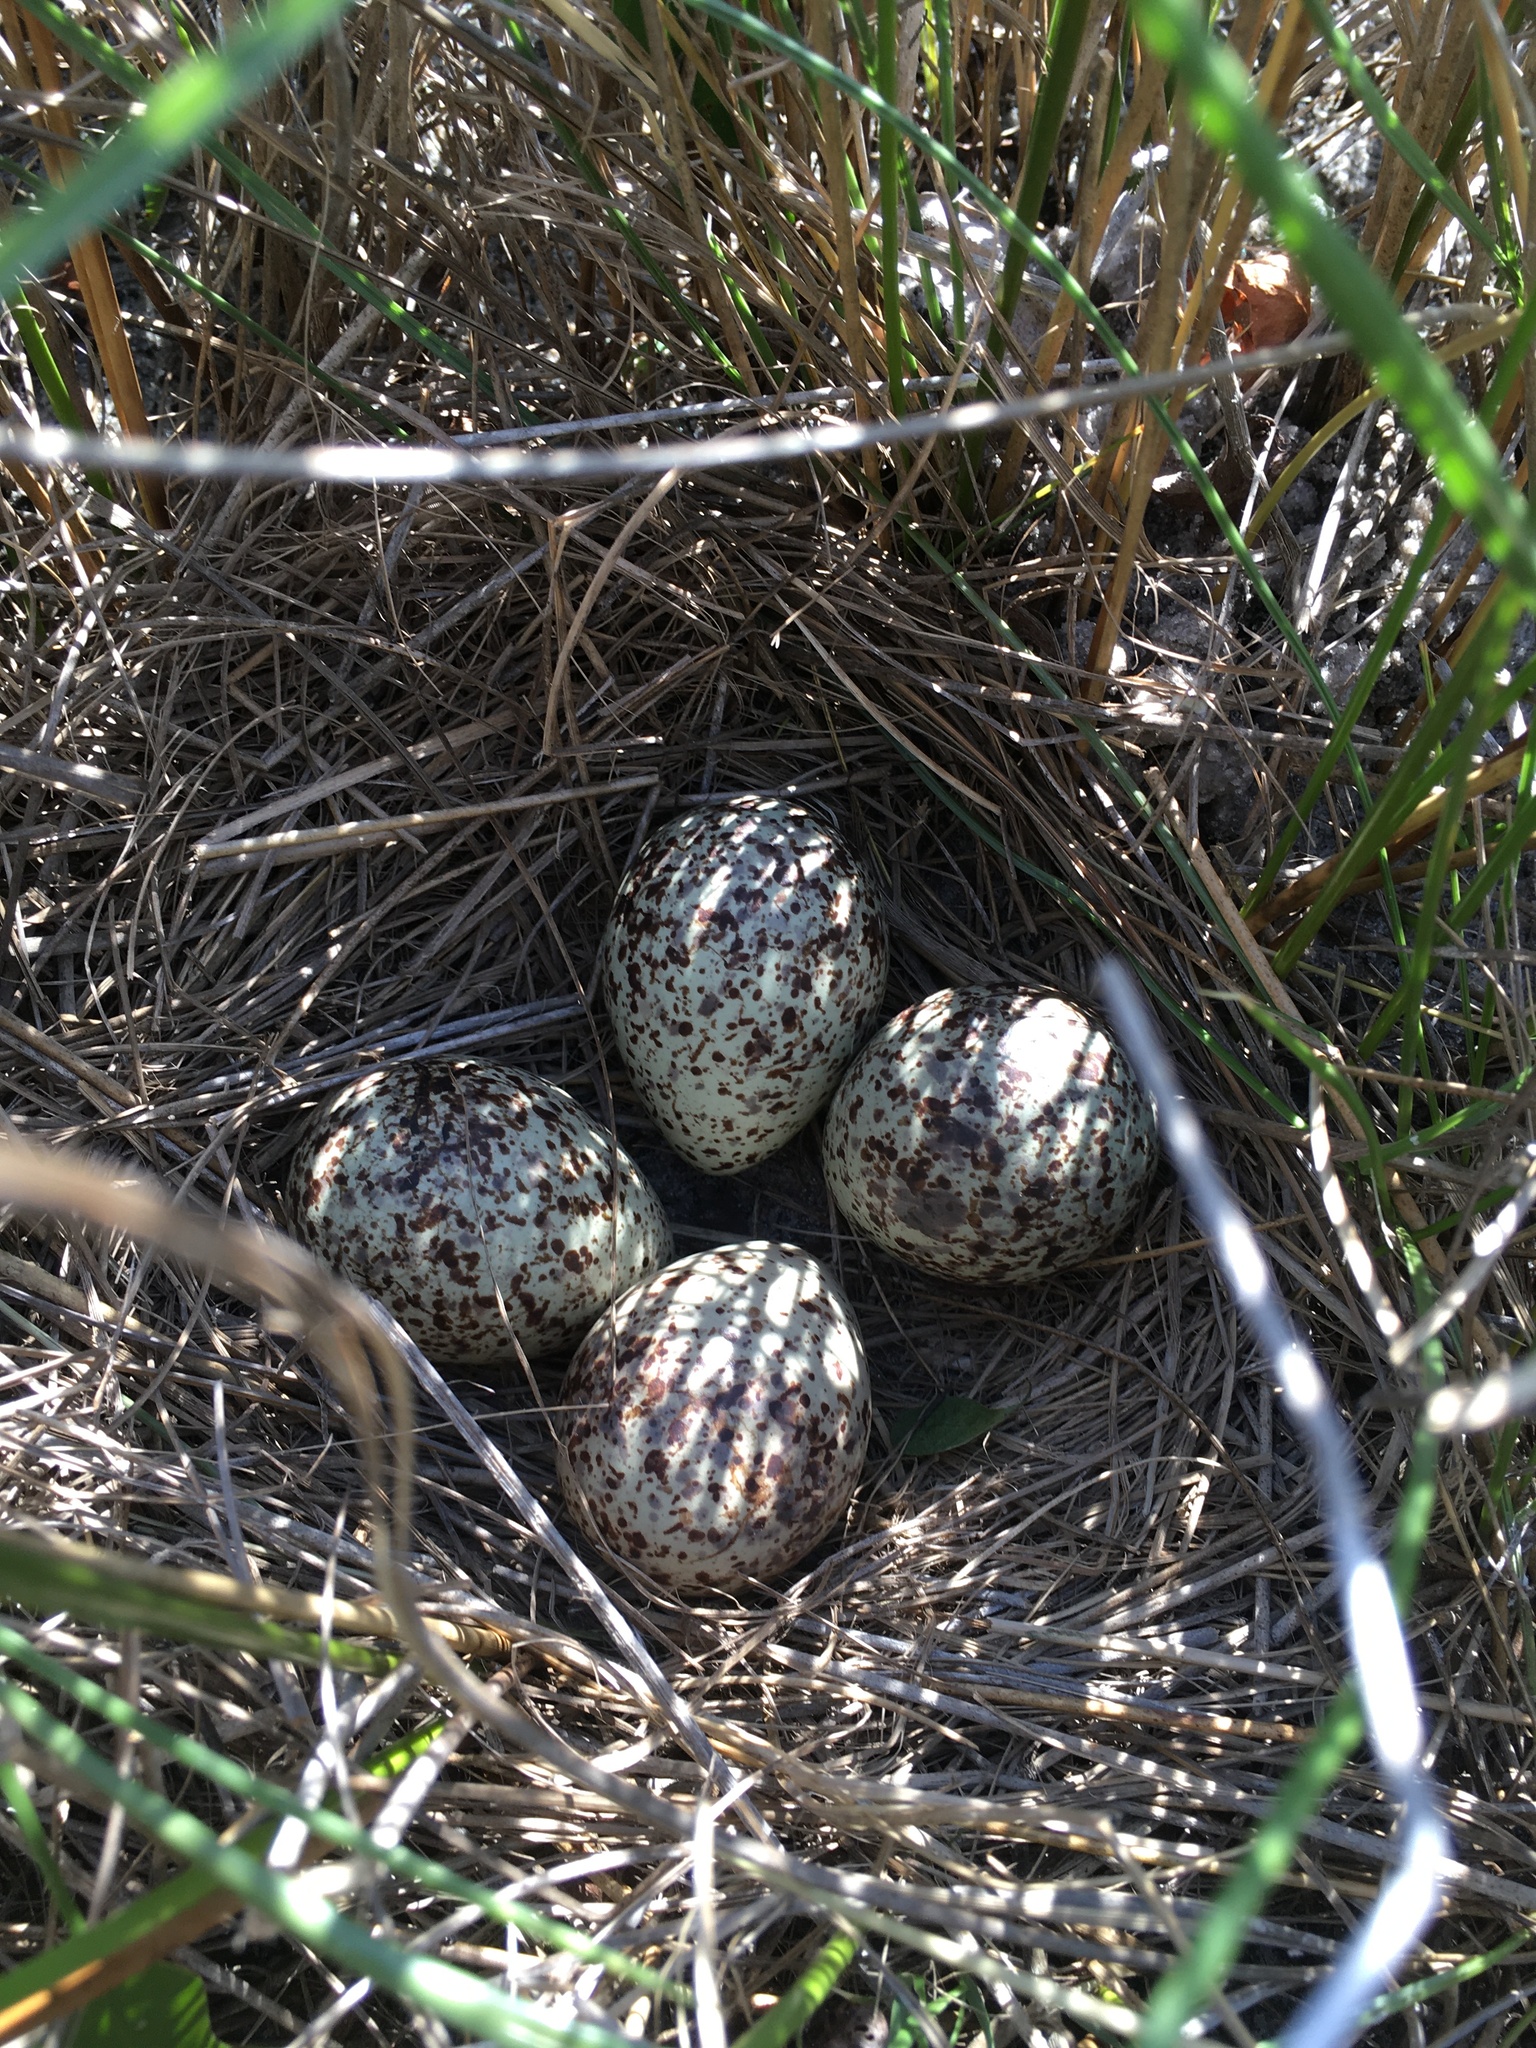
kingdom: Animalia
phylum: Chordata
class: Aves
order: Charadriiformes
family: Scolopacidae
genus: Tringa
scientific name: Tringa semipalmata
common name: Willet
